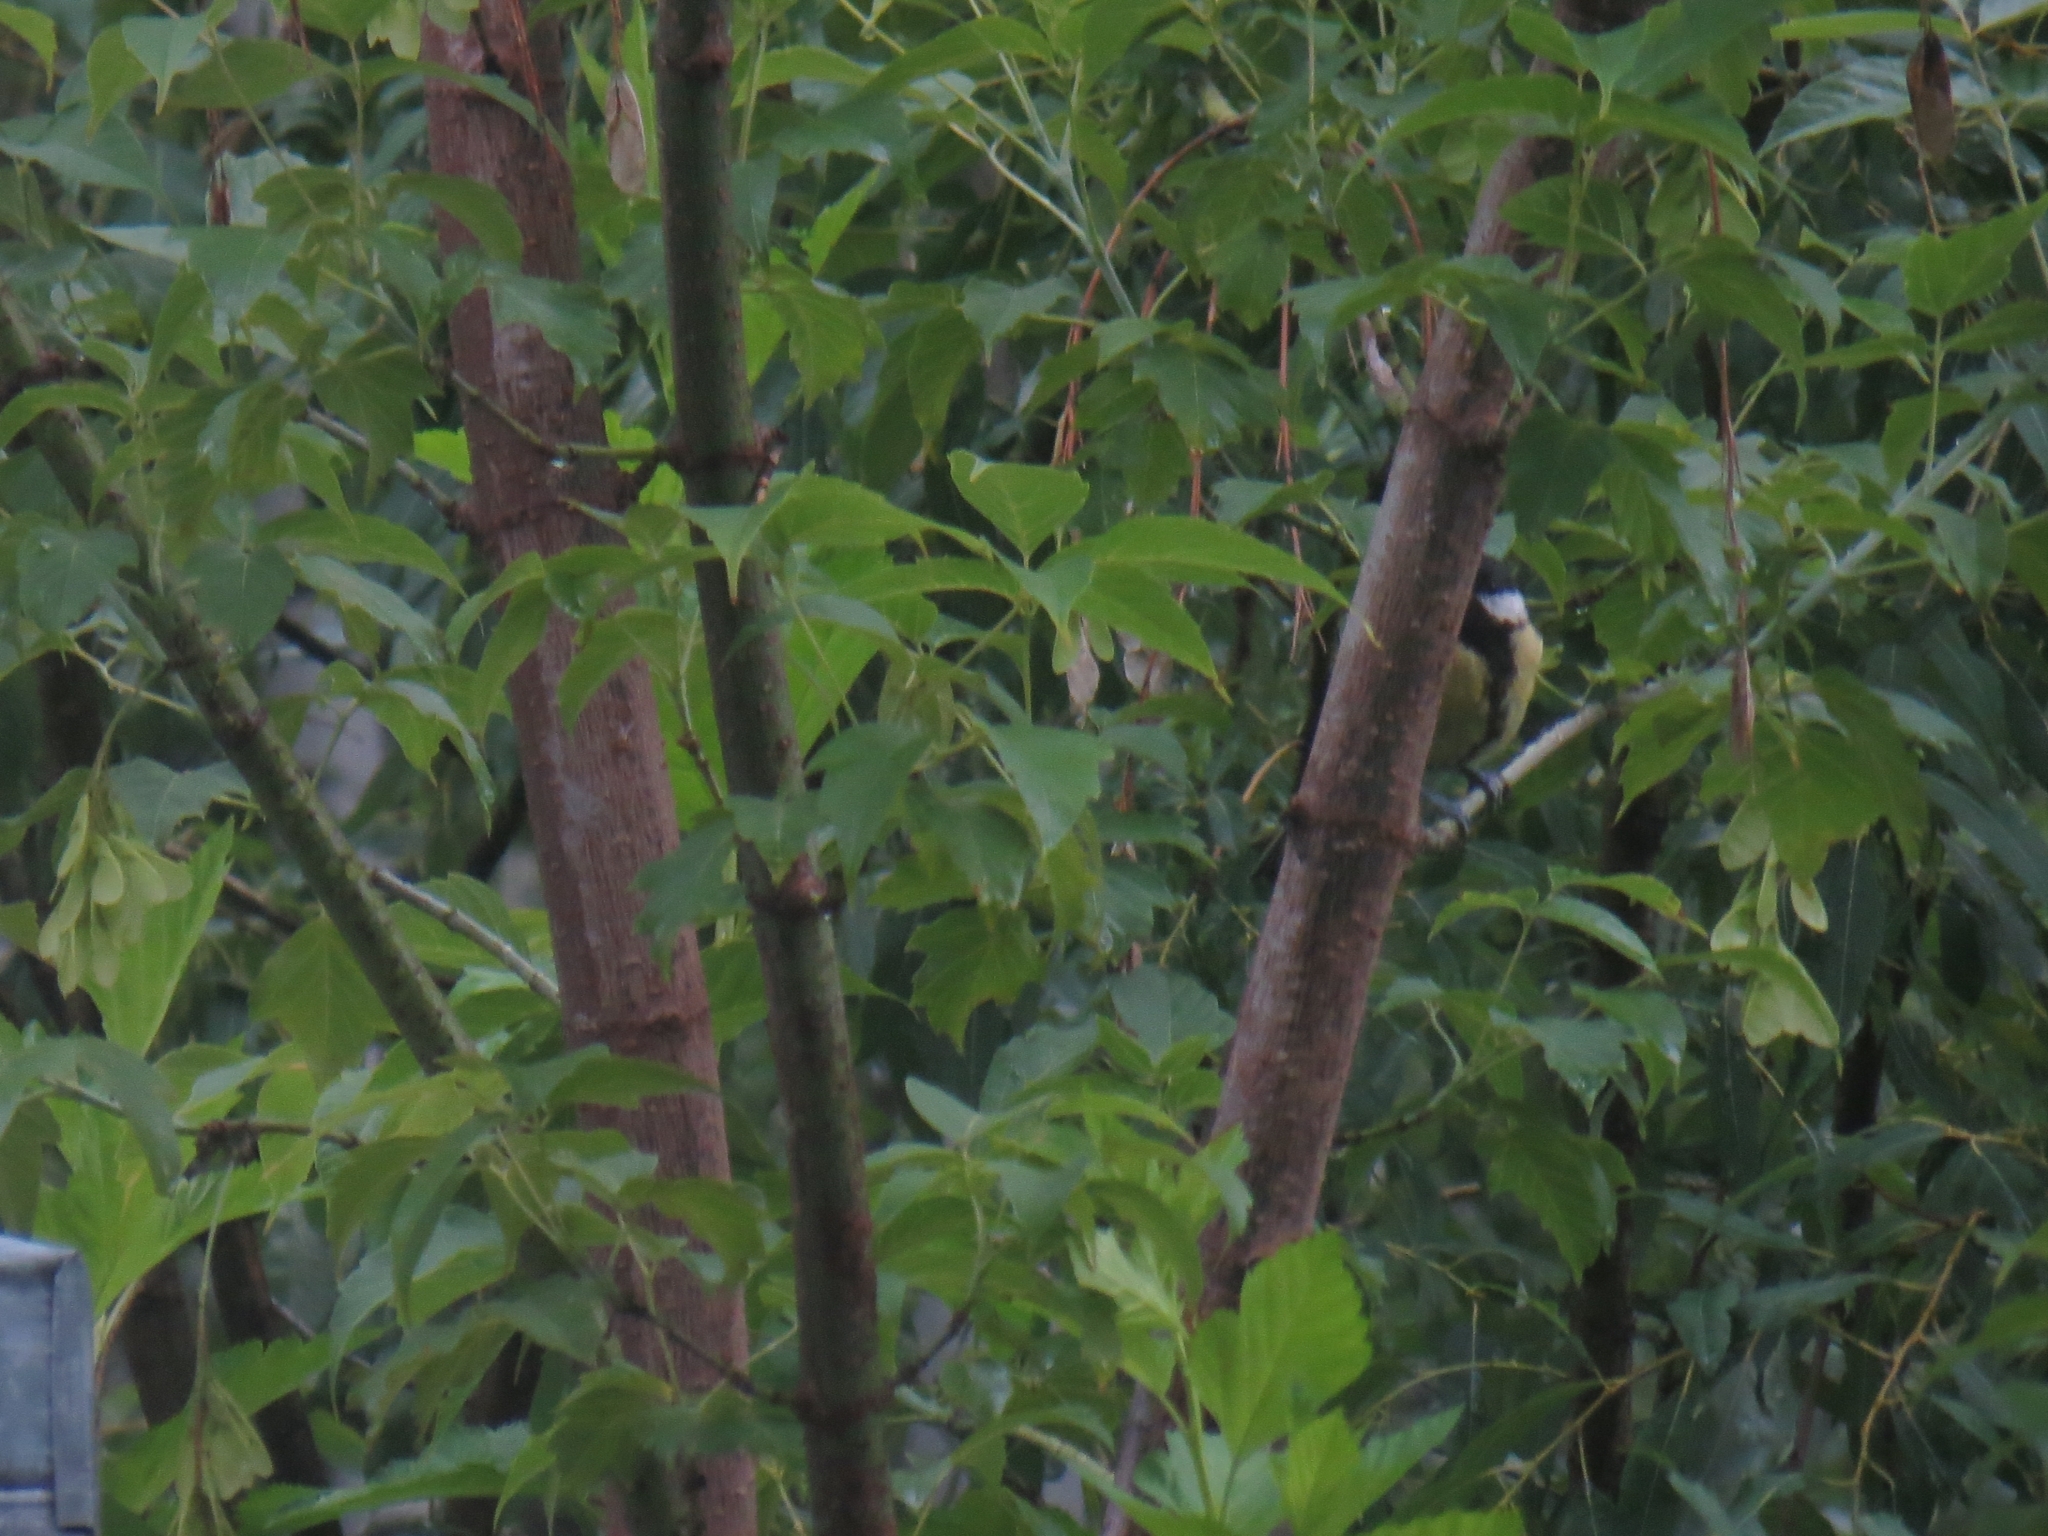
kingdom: Animalia
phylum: Chordata
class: Aves
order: Passeriformes
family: Paridae
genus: Parus
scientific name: Parus major
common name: Great tit
